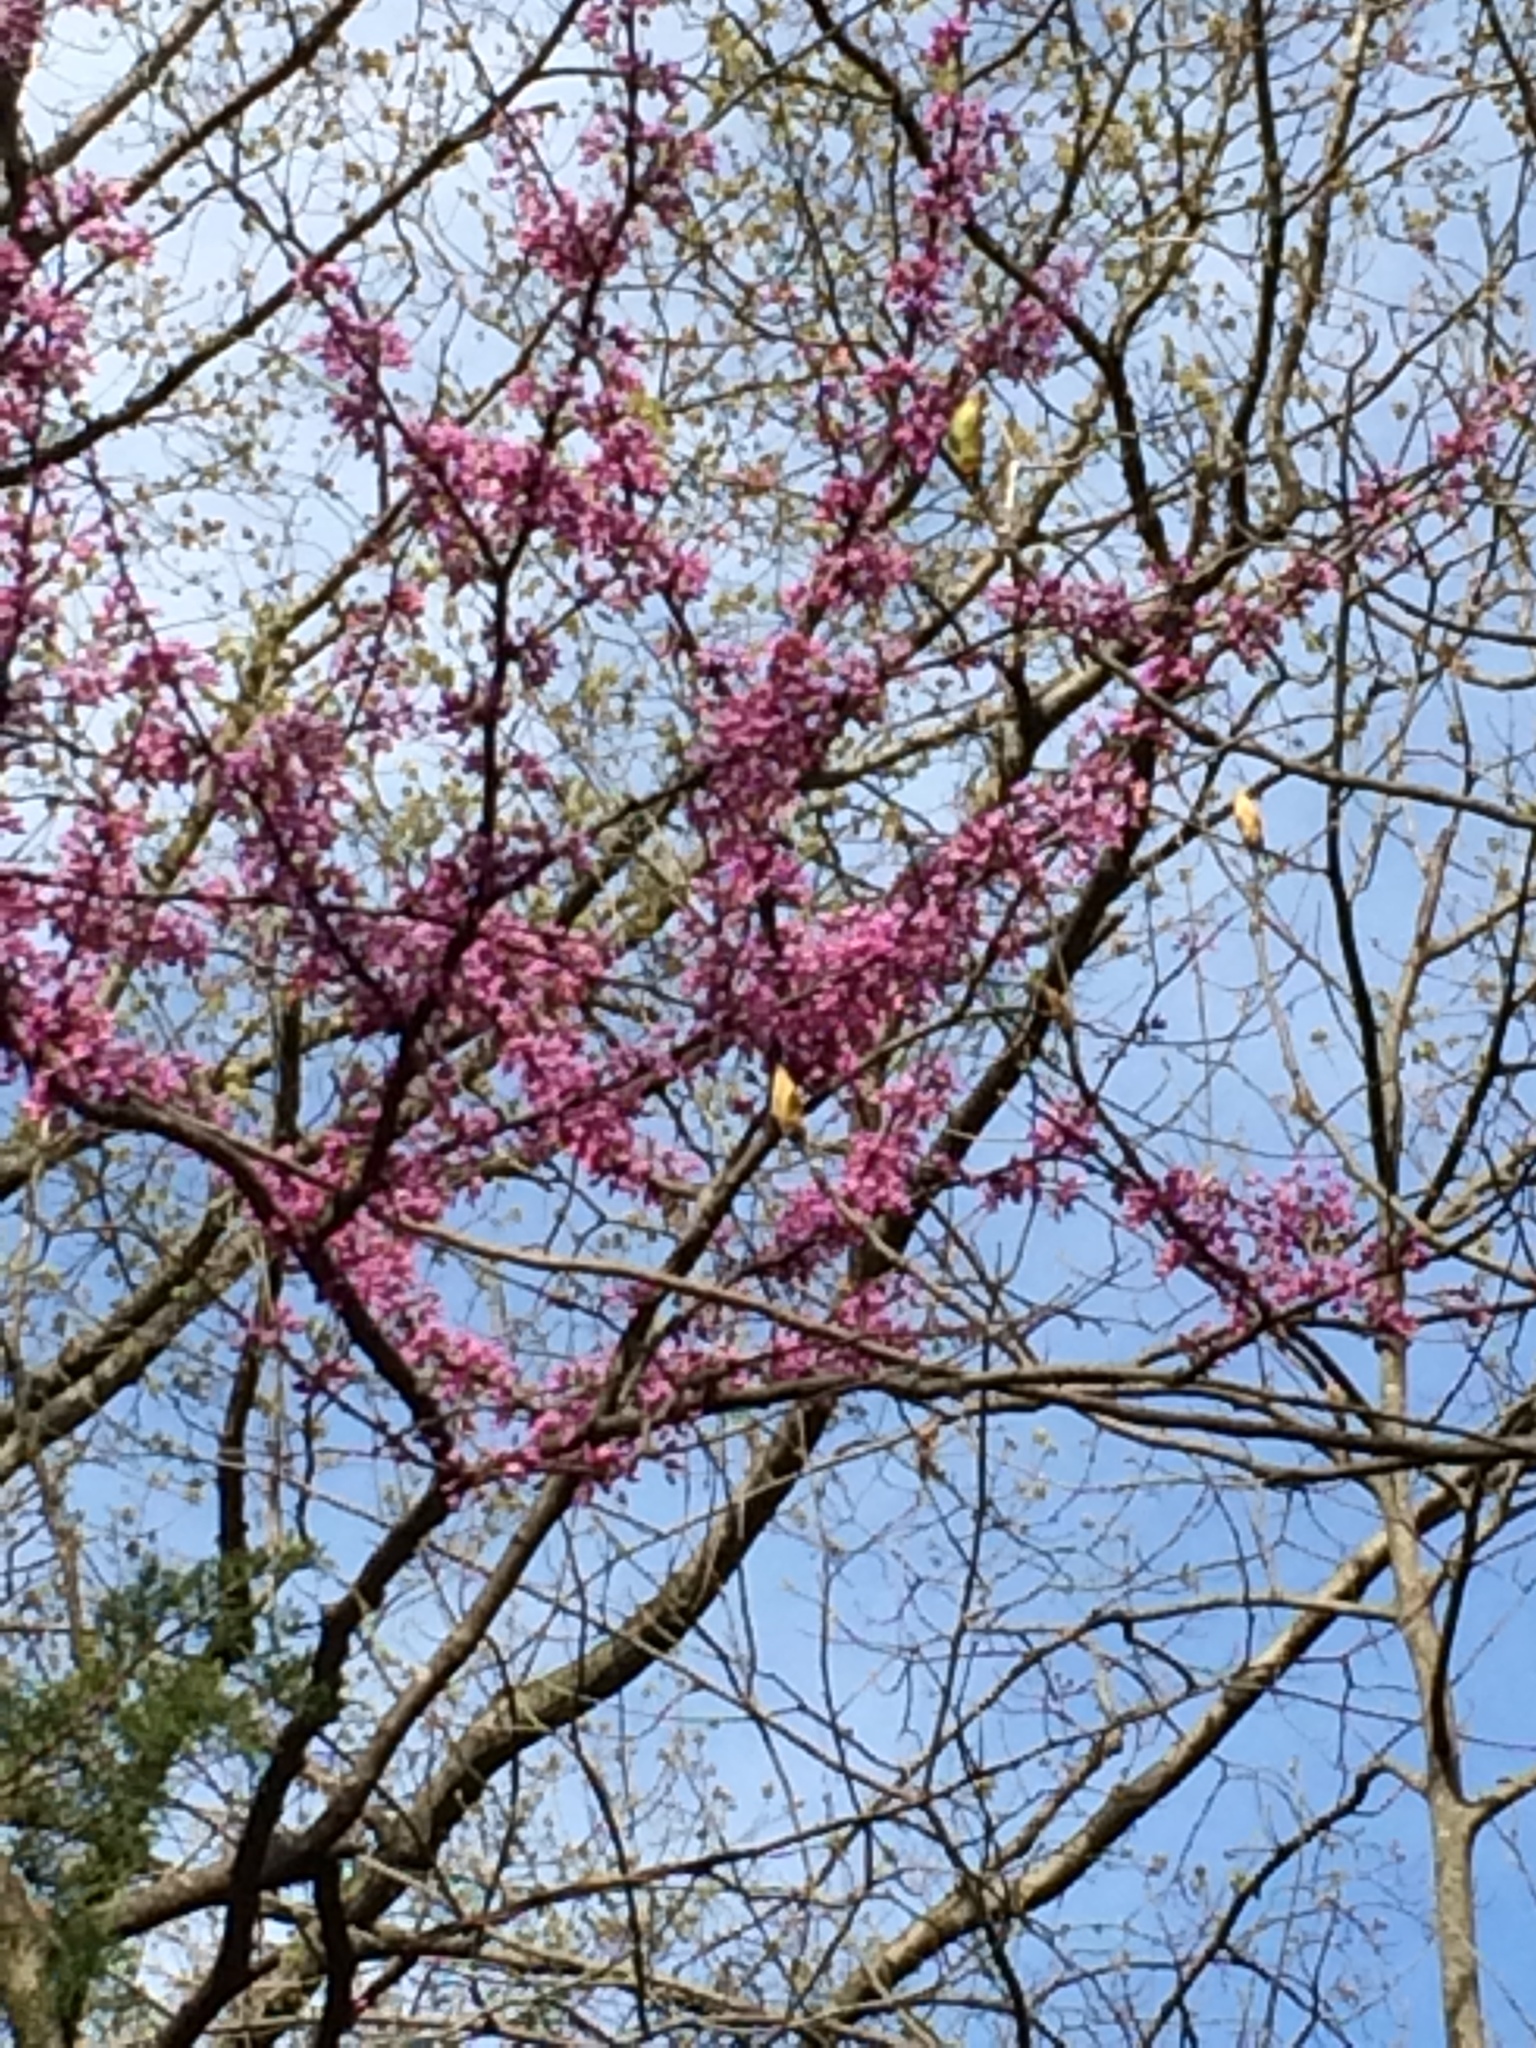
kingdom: Plantae
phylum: Tracheophyta
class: Magnoliopsida
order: Fabales
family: Fabaceae
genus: Cercis
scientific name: Cercis canadensis
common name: Eastern redbud
